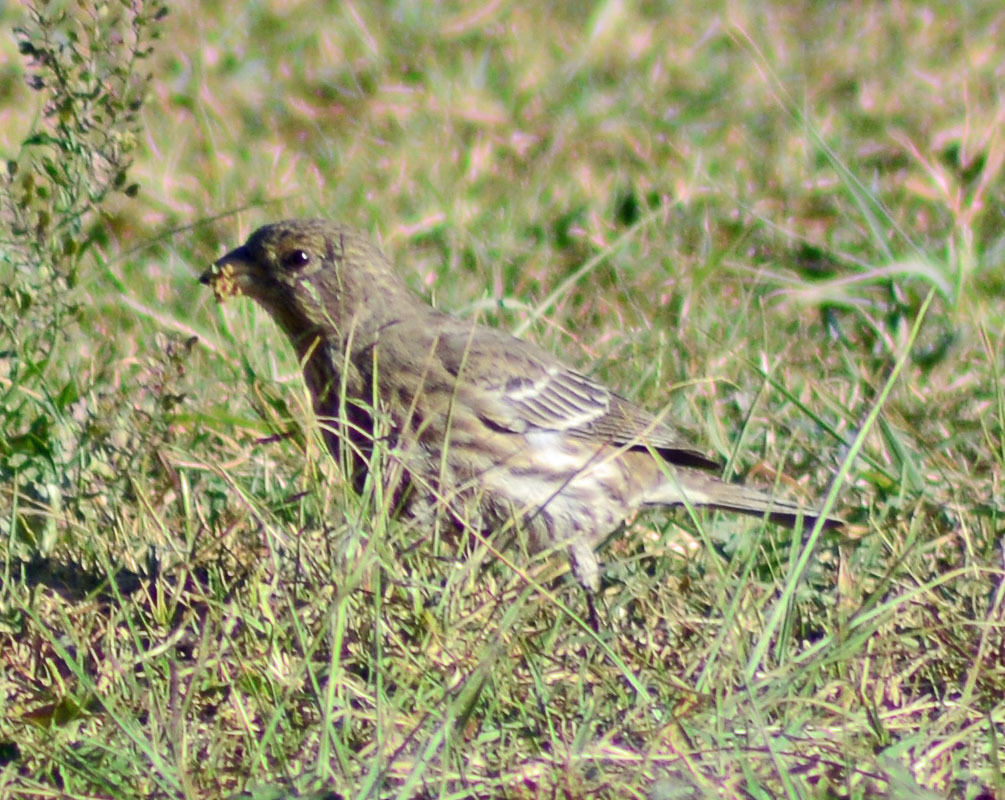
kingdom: Animalia
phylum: Chordata
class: Aves
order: Passeriformes
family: Fringillidae
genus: Haemorhous
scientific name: Haemorhous mexicanus
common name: House finch
